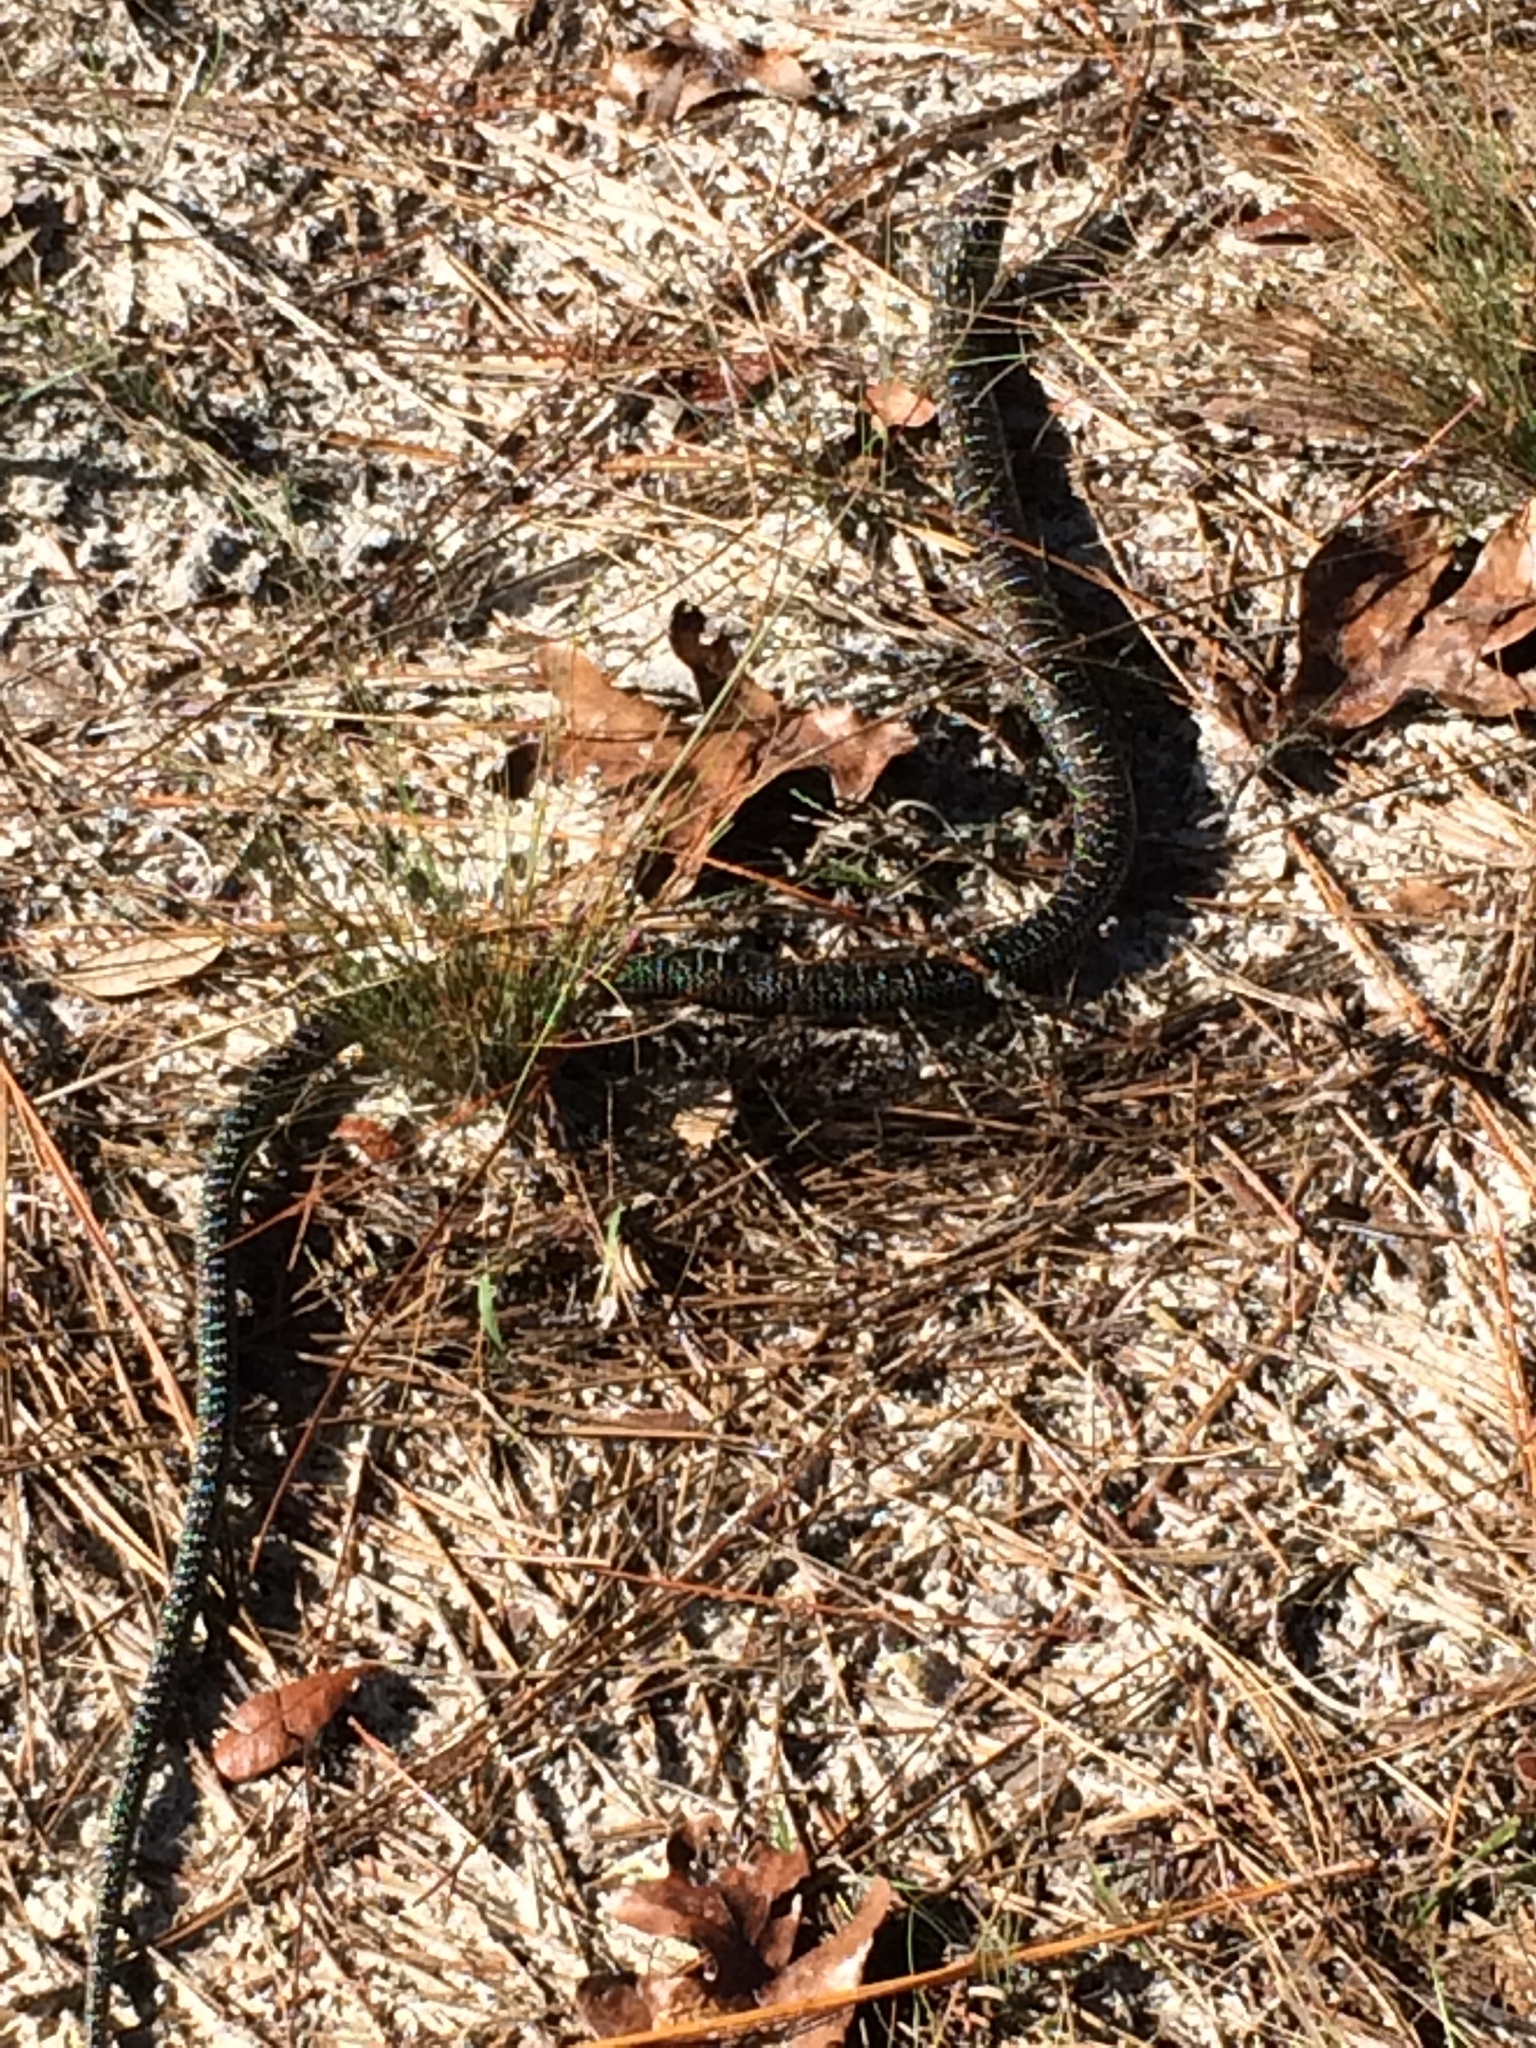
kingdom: Animalia
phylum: Chordata
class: Squamata
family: Anguidae
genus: Ophisaurus
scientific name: Ophisaurus attenuatus
